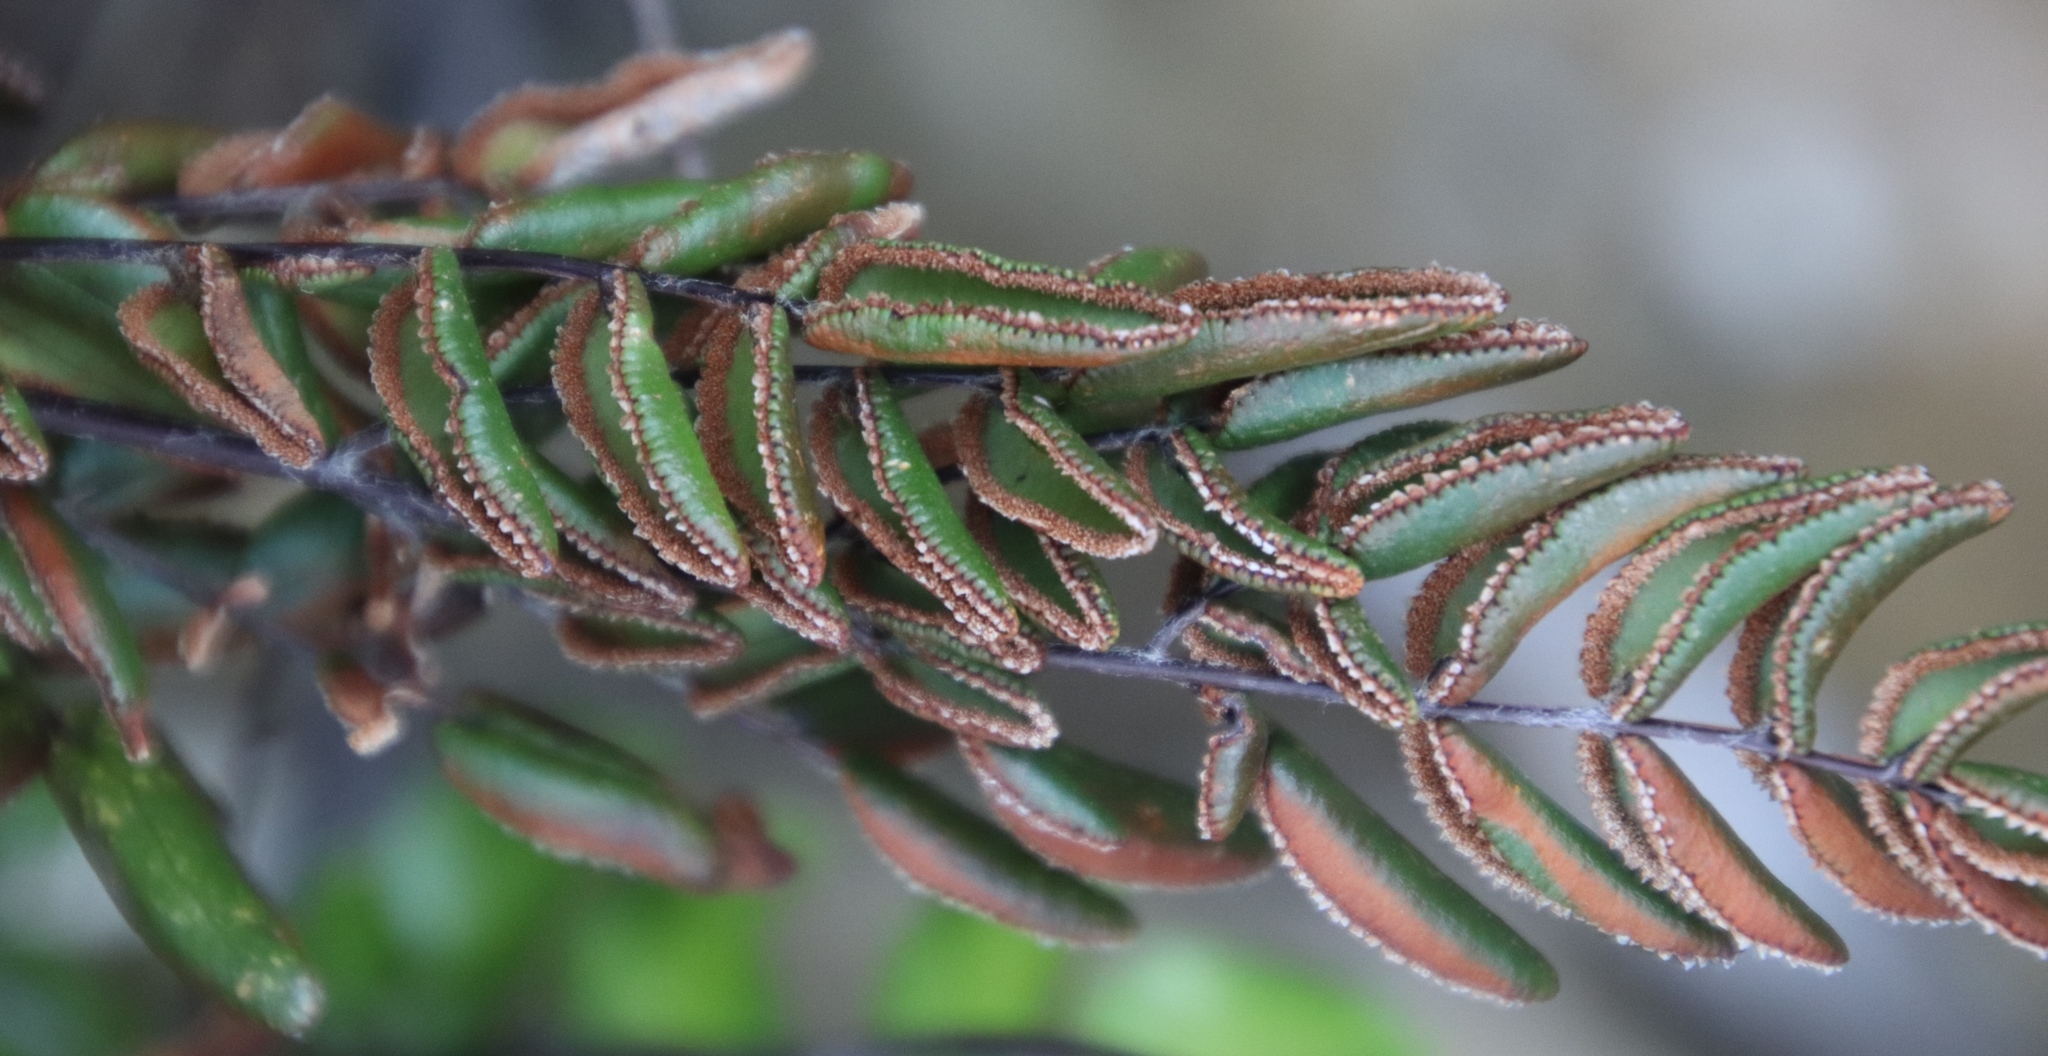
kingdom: Plantae
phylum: Tracheophyta
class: Polypodiopsida
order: Polypodiales
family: Pteridaceae
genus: Pellaea
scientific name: Pellaea pteroides
